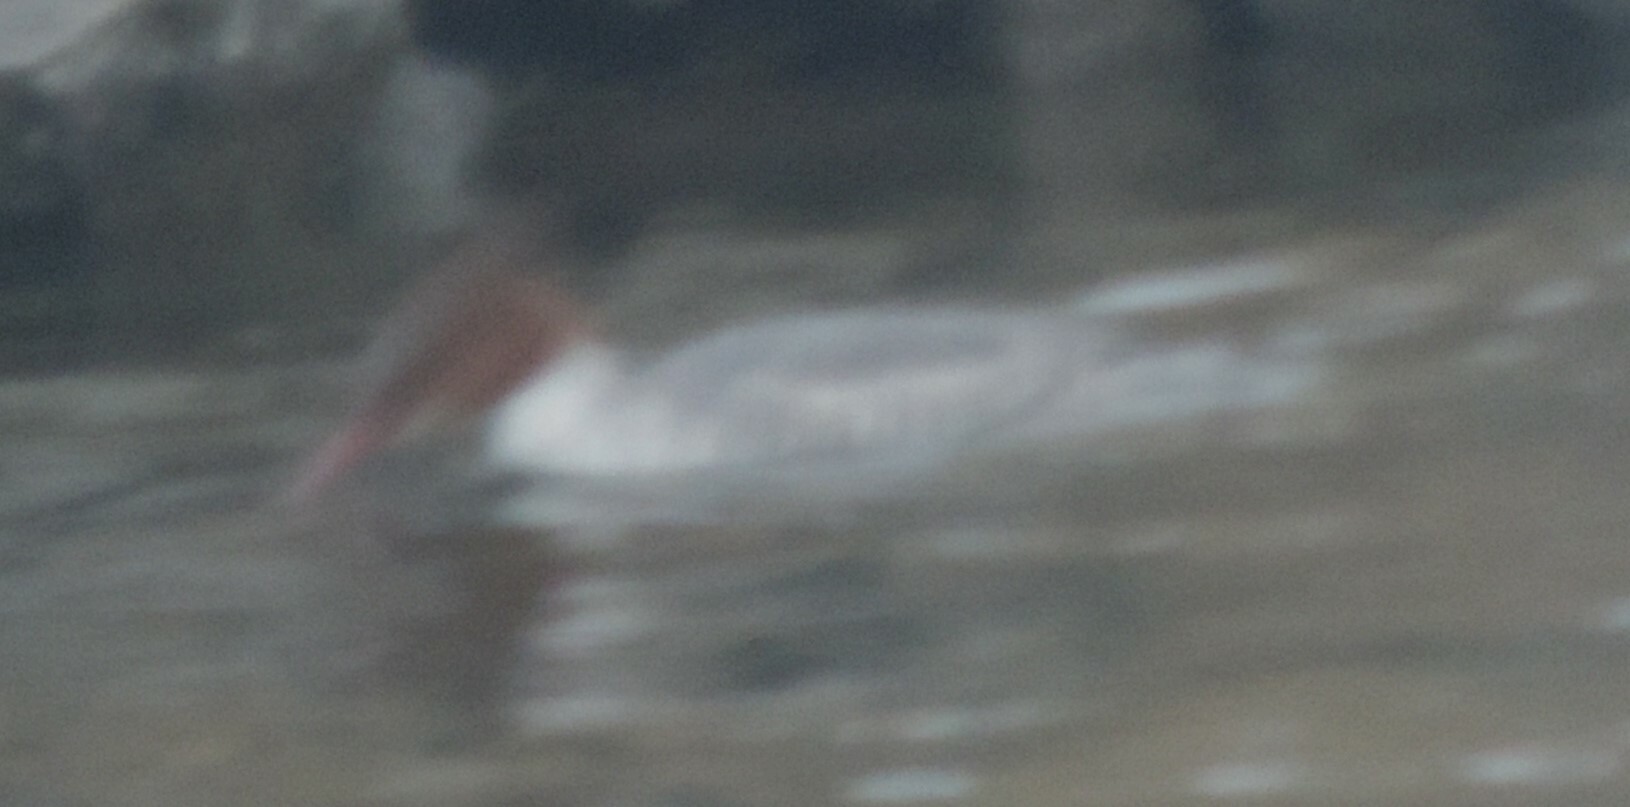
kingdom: Animalia
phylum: Chordata
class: Aves
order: Anseriformes
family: Anatidae
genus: Mergus
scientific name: Mergus merganser
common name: Common merganser
